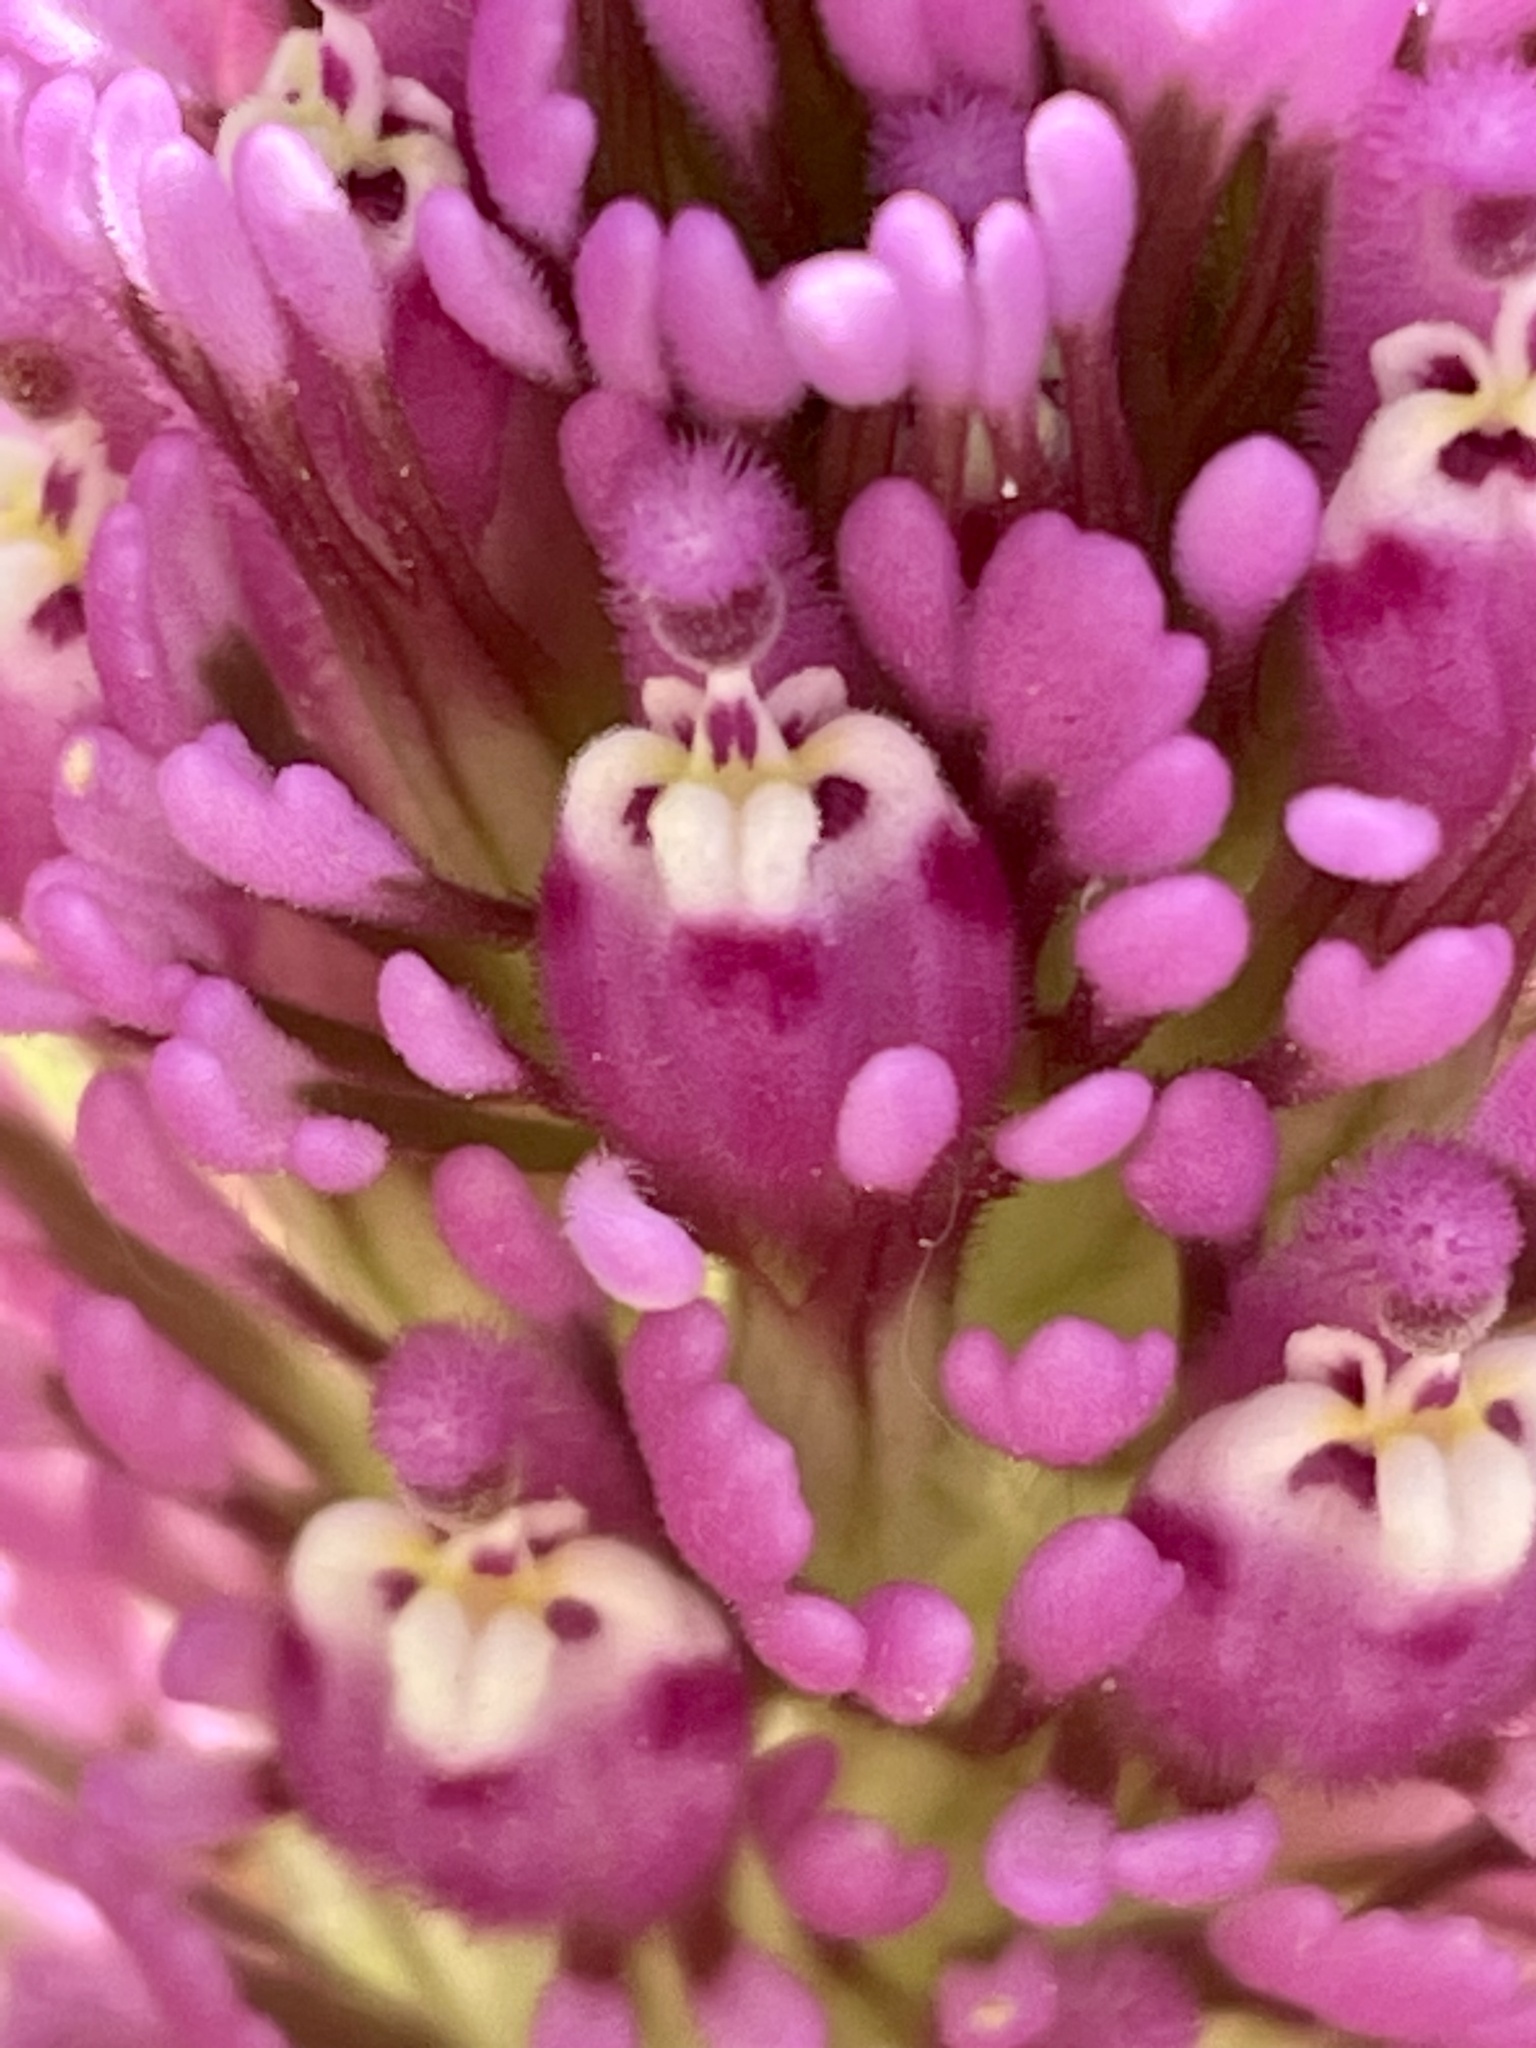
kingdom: Plantae
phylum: Tracheophyta
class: Magnoliopsida
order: Lamiales
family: Orobanchaceae
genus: Castilleja
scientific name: Castilleja exserta
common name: Purple owl-clover
